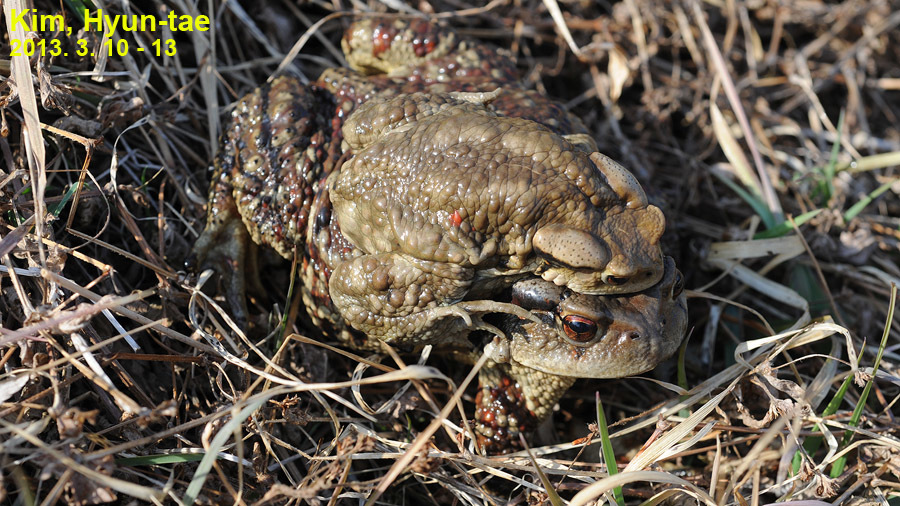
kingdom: Animalia
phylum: Chordata
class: Amphibia
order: Anura
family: Bufonidae
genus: Bufo
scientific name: Bufo gargarizans
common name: Asiatic toad
